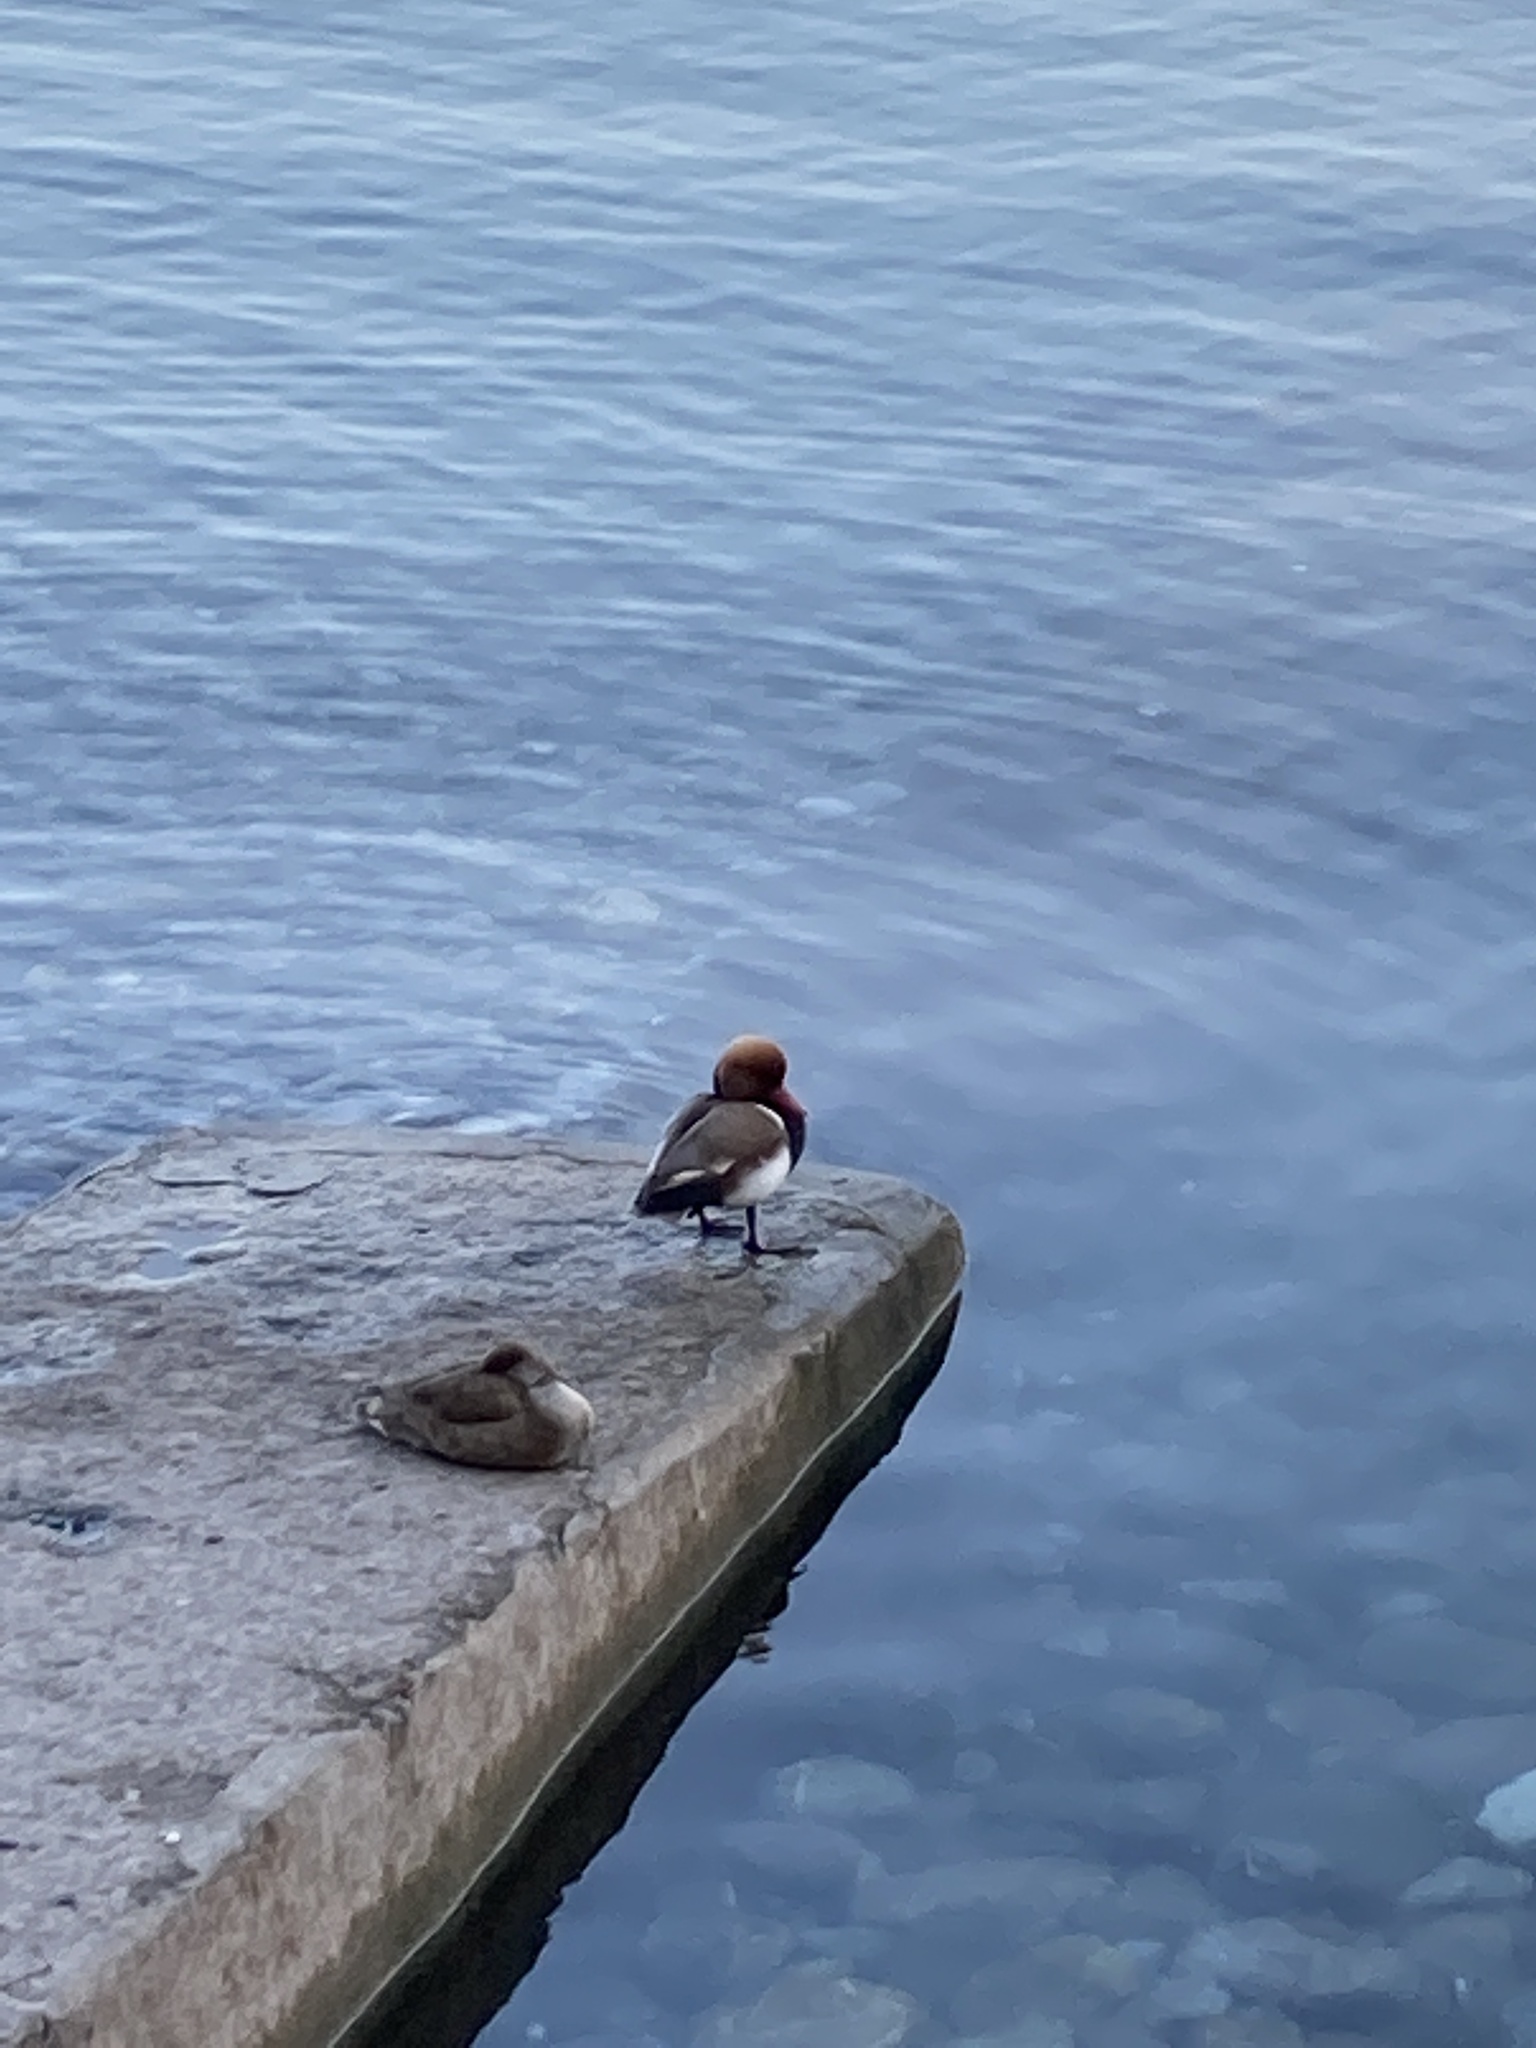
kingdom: Animalia
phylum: Chordata
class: Aves
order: Anseriformes
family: Anatidae
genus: Netta
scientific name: Netta rufina
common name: Red-crested pochard
